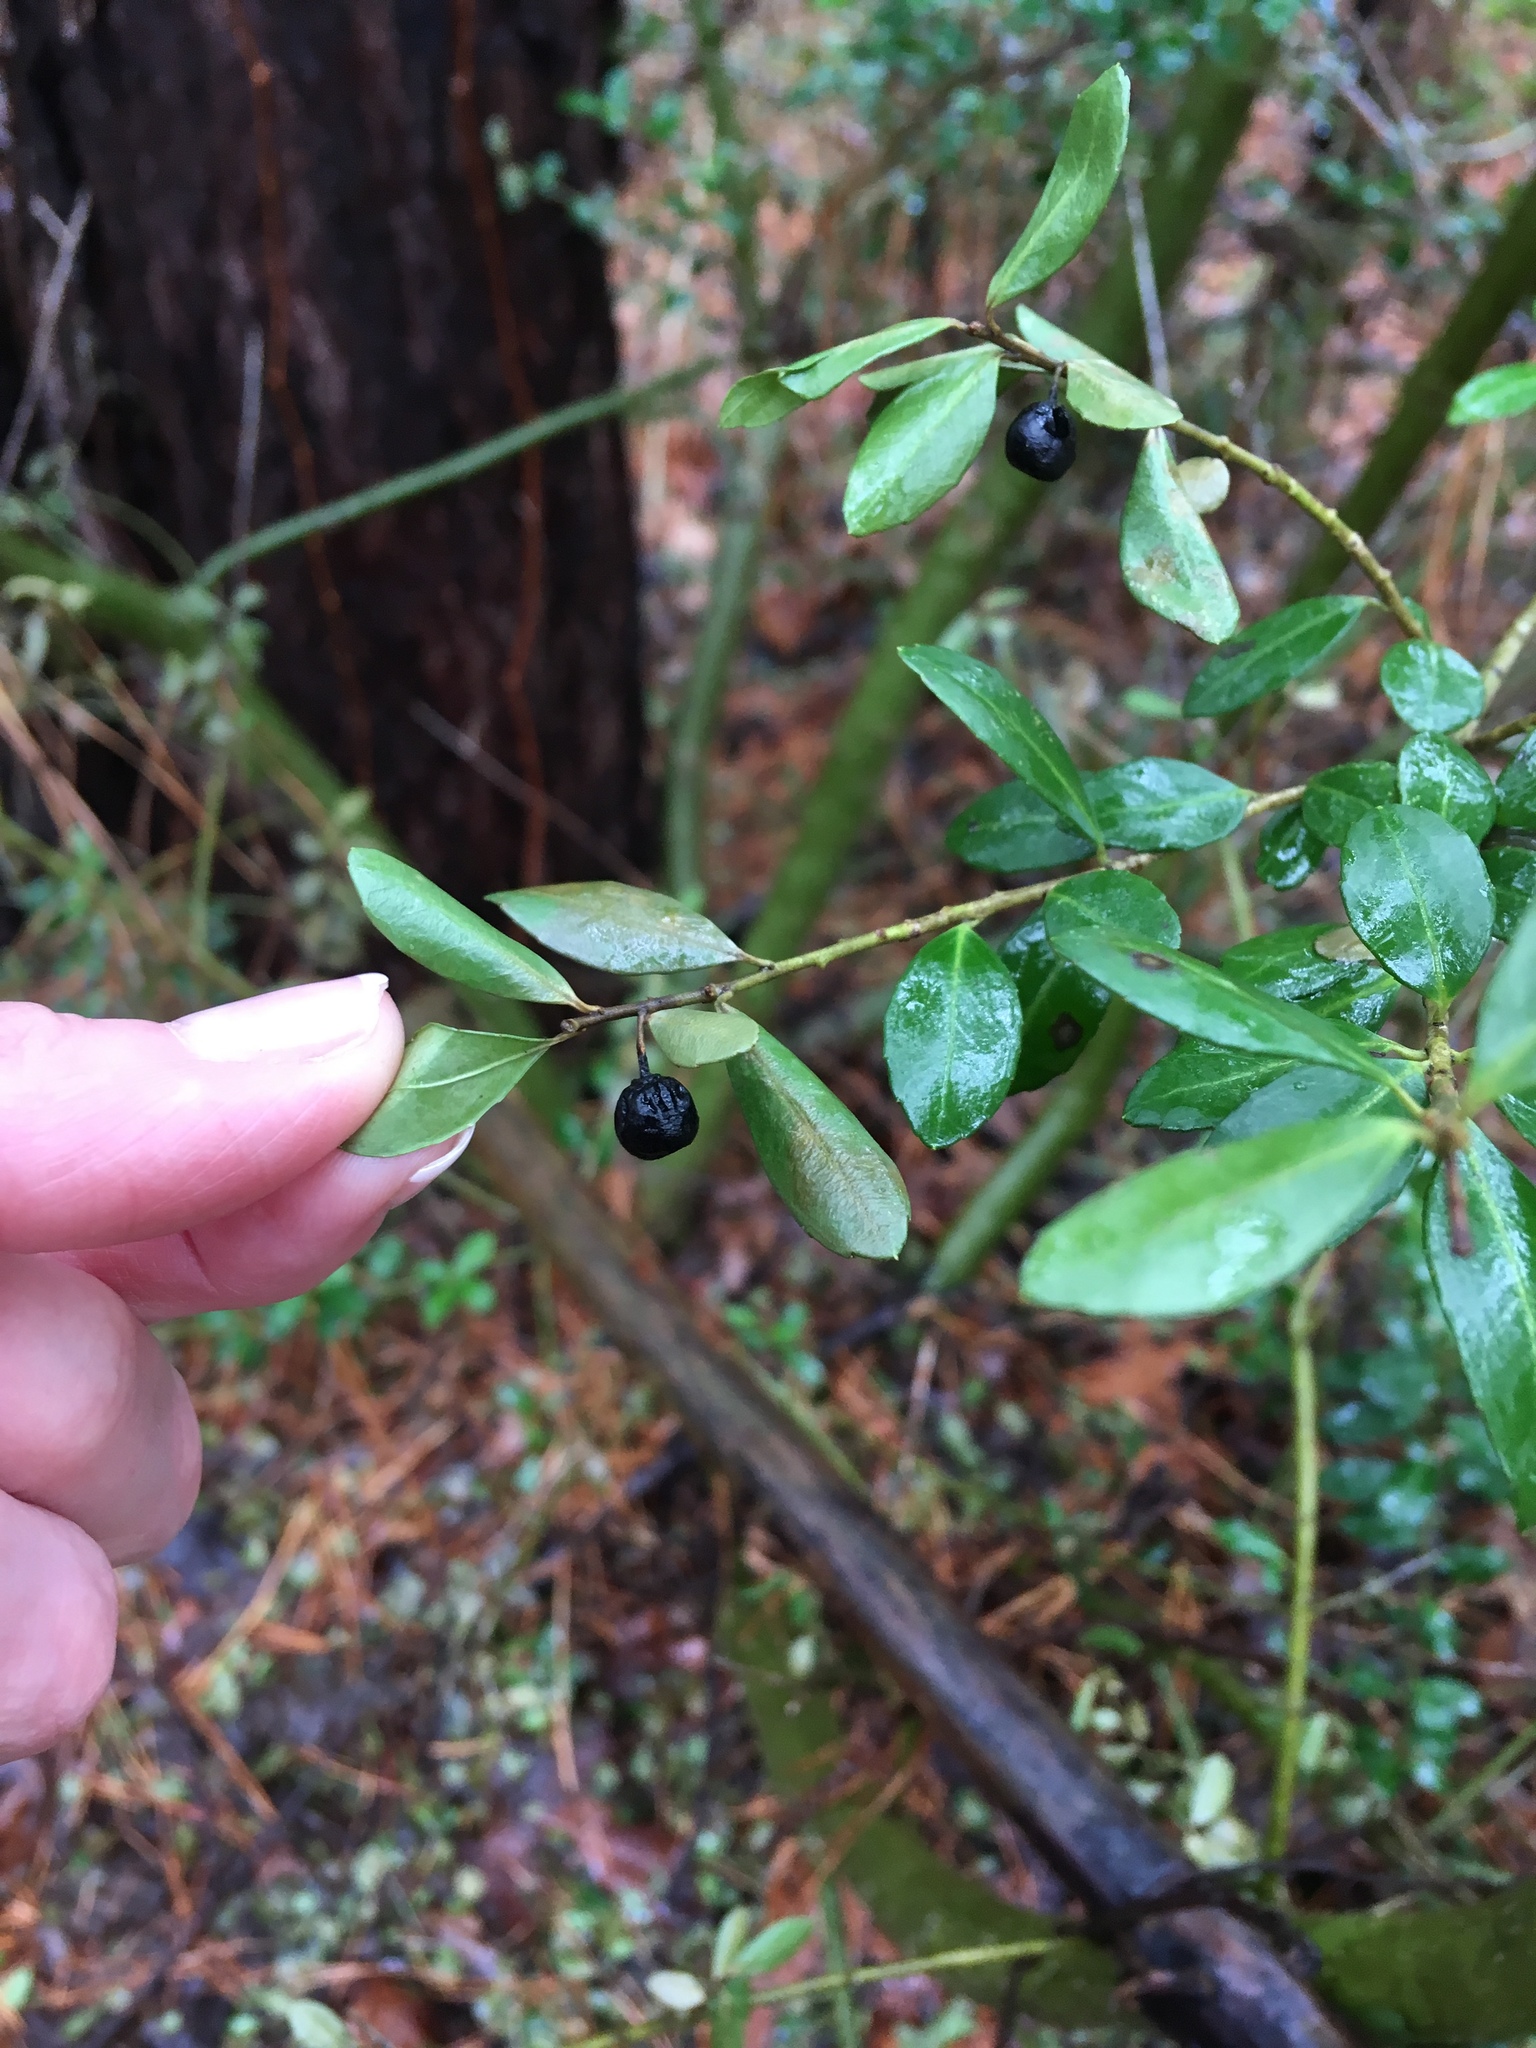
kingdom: Plantae
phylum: Tracheophyta
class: Magnoliopsida
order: Aquifoliales
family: Aquifoliaceae
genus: Ilex
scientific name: Ilex crenata
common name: Japanese holly
